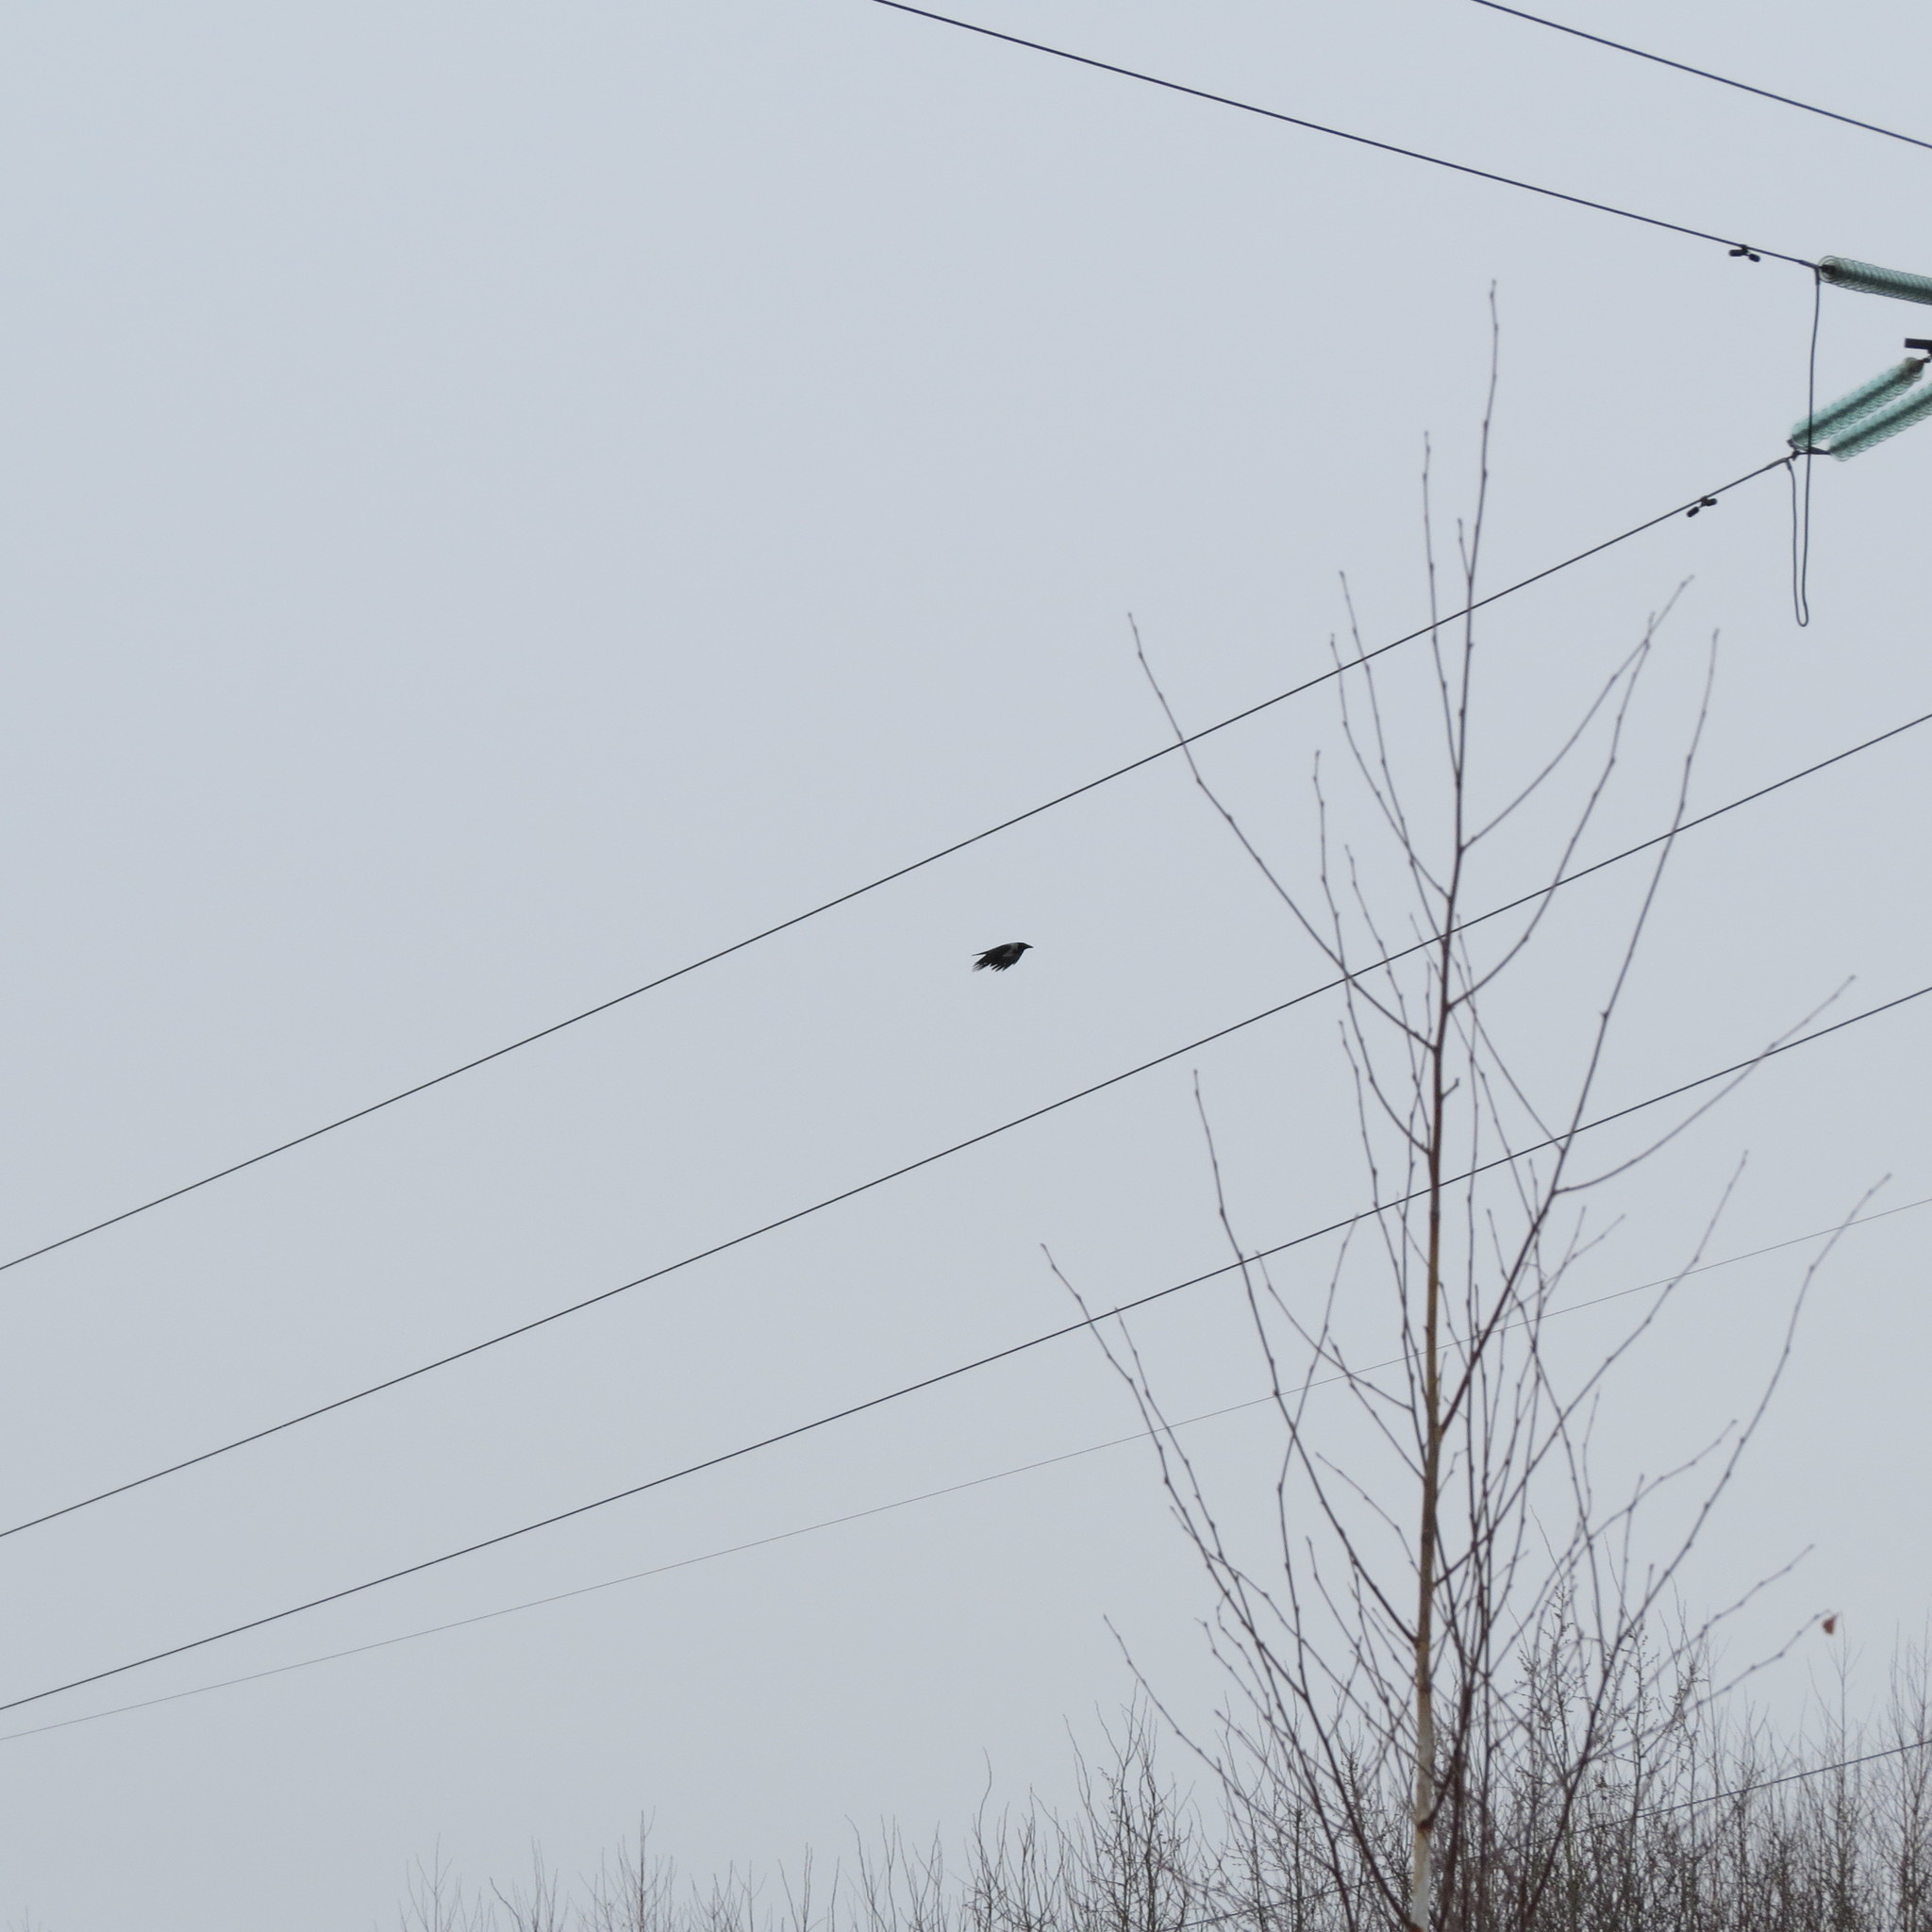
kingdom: Animalia
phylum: Chordata
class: Aves
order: Passeriformes
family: Corvidae
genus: Corvus
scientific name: Corvus cornix
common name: Hooded crow
